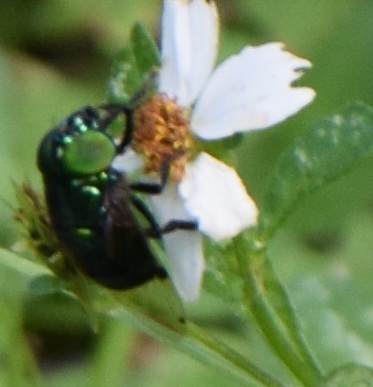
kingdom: Animalia
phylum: Arthropoda
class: Insecta
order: Diptera
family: Syrphidae
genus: Ornidia
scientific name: Ornidia obesa
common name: Syrphid fly
